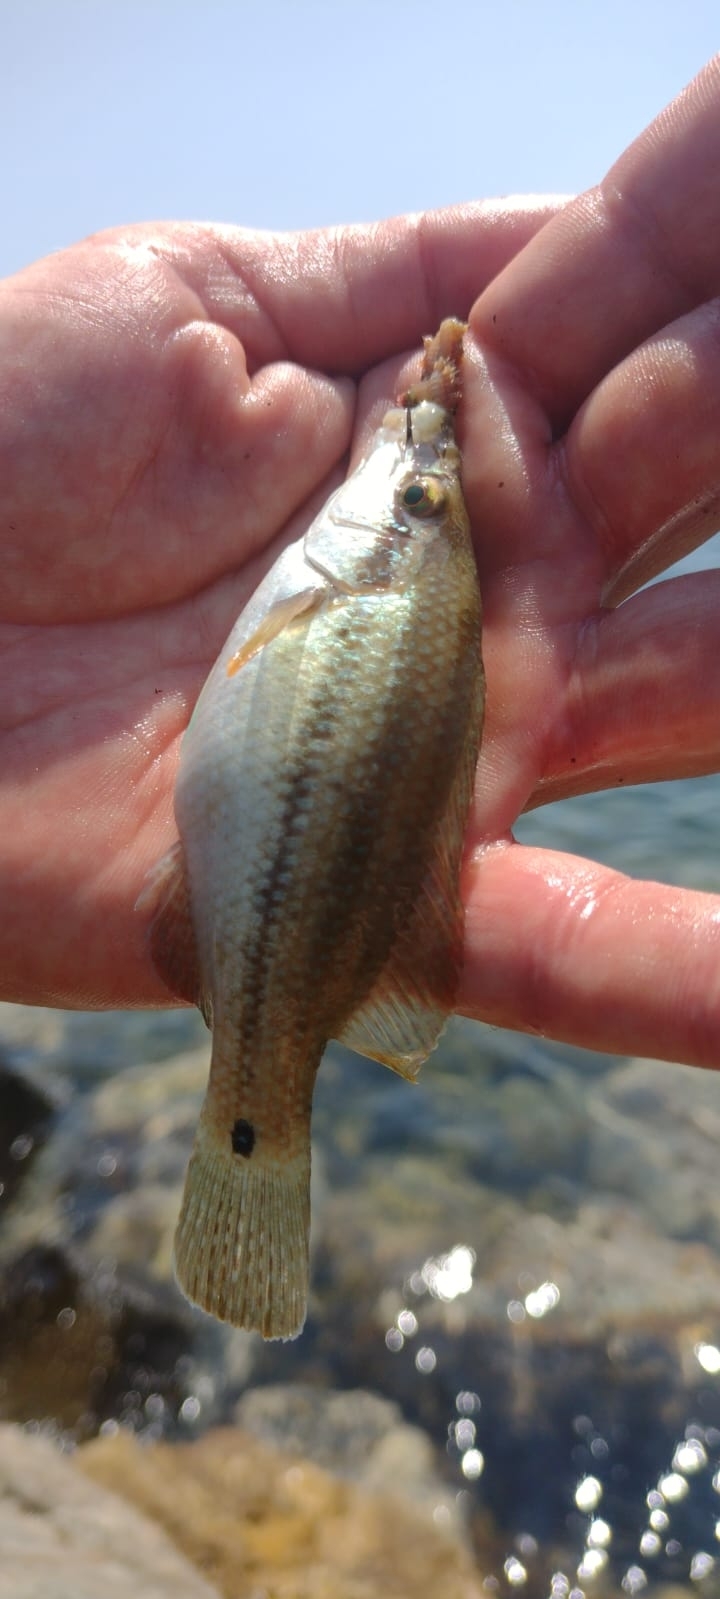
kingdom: Animalia
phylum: Chordata
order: Perciformes
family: Labridae
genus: Symphodus
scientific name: Symphodus tinca
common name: Peacock wrasse
